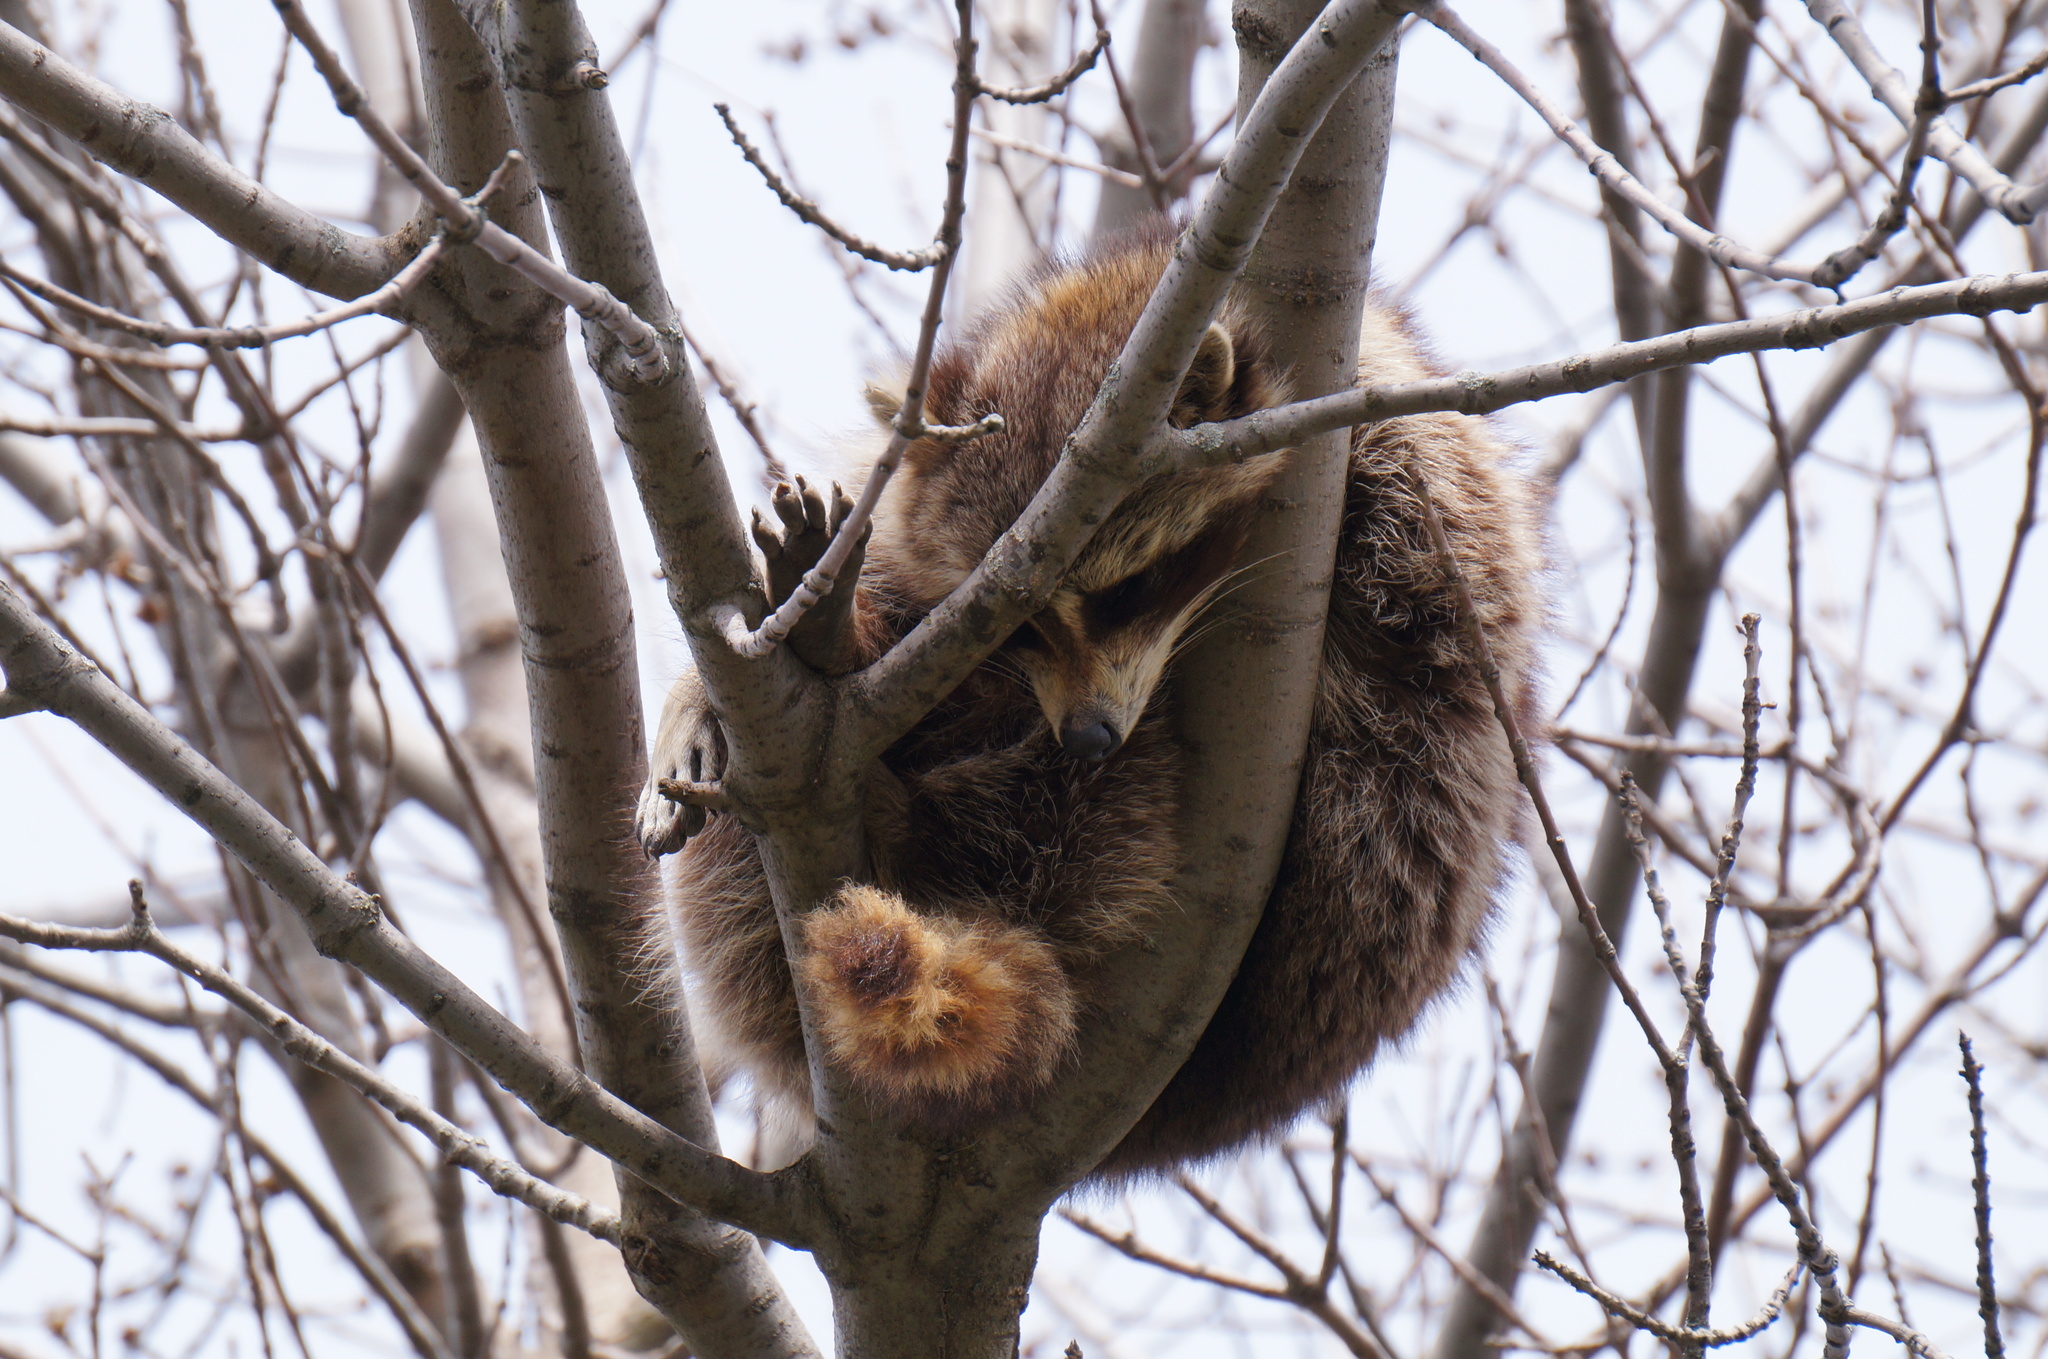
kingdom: Animalia
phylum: Chordata
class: Mammalia
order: Carnivora
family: Procyonidae
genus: Procyon
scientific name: Procyon lotor
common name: Raccoon
